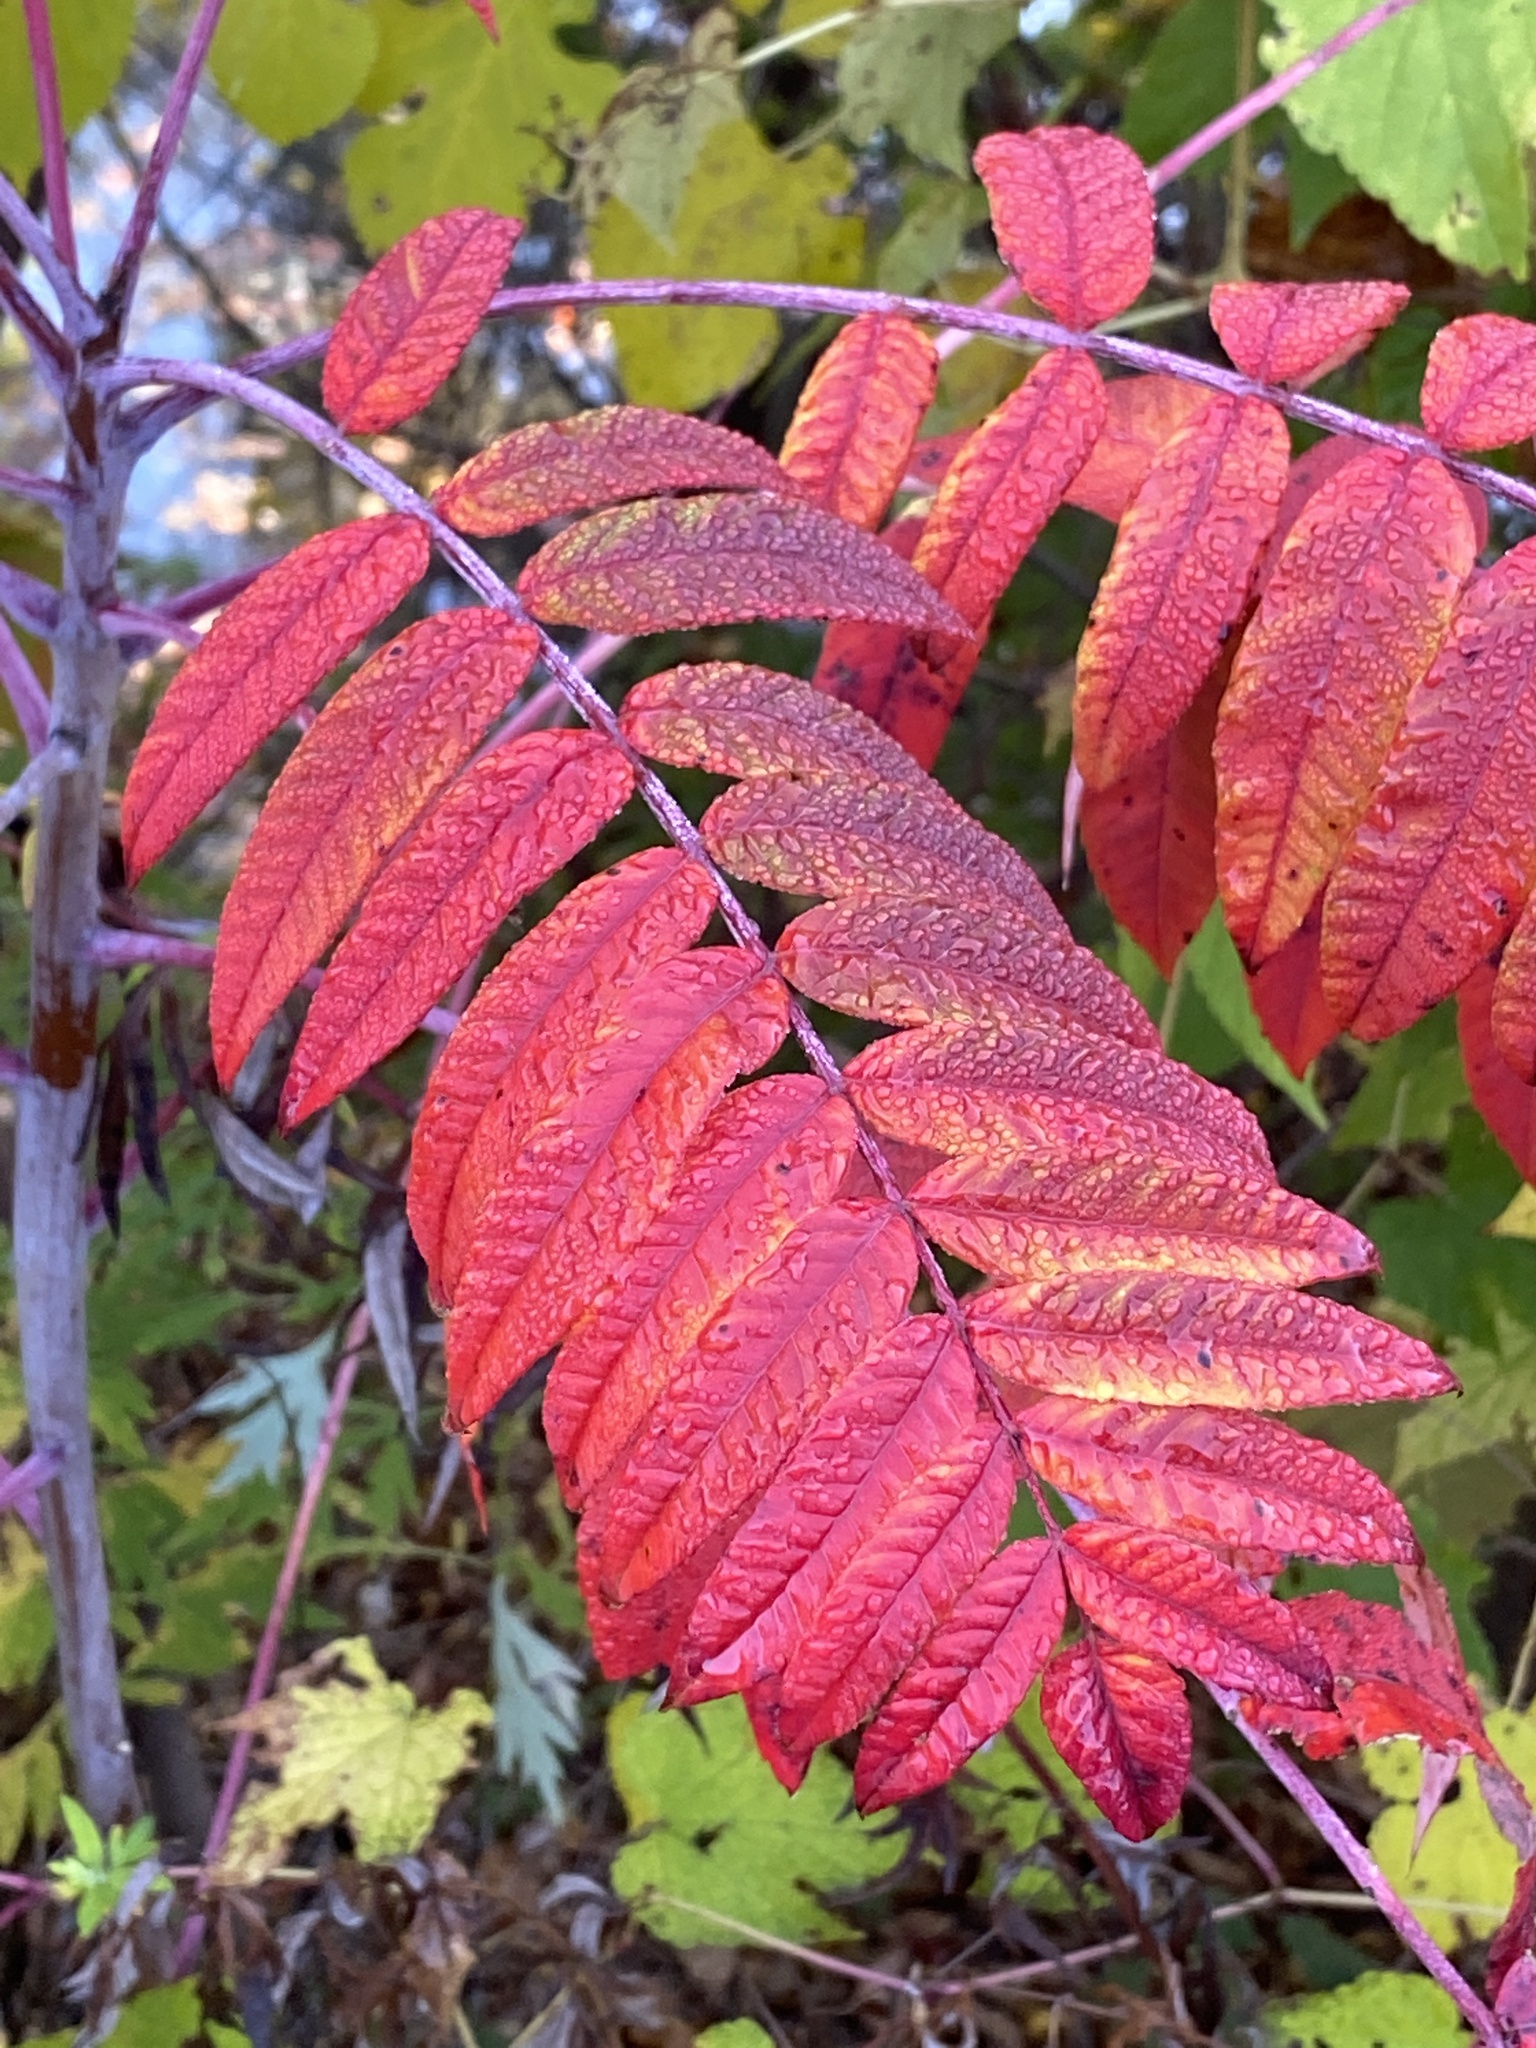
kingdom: Plantae
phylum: Tracheophyta
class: Magnoliopsida
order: Sapindales
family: Anacardiaceae
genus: Rhus
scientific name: Rhus glabra
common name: Scarlet sumac
